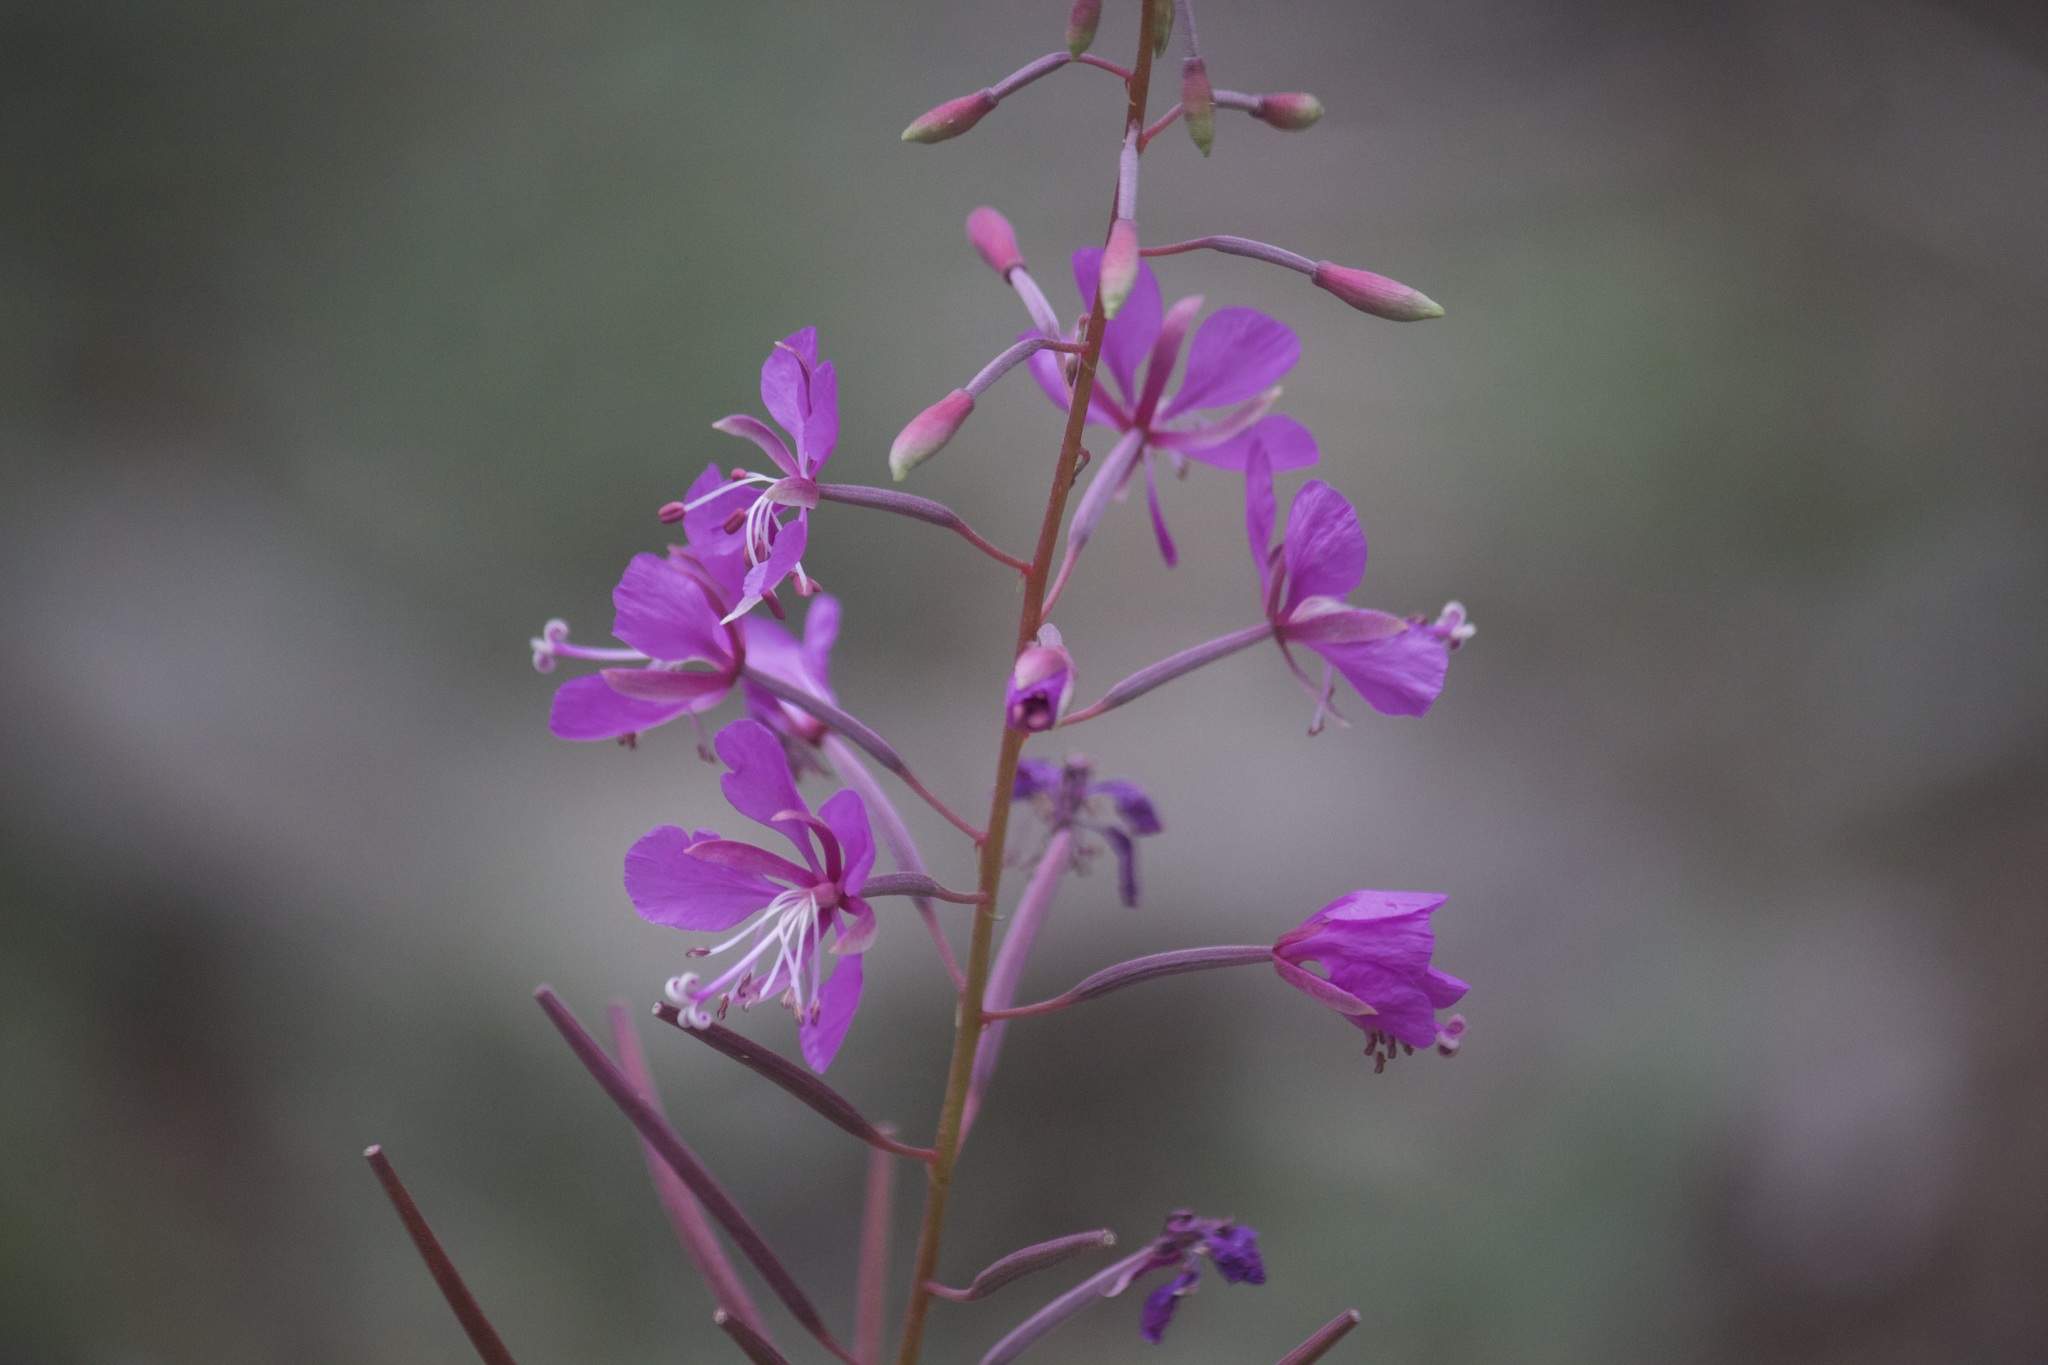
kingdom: Plantae
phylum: Tracheophyta
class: Magnoliopsida
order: Myrtales
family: Onagraceae
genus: Chamaenerion
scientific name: Chamaenerion angustifolium
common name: Fireweed
